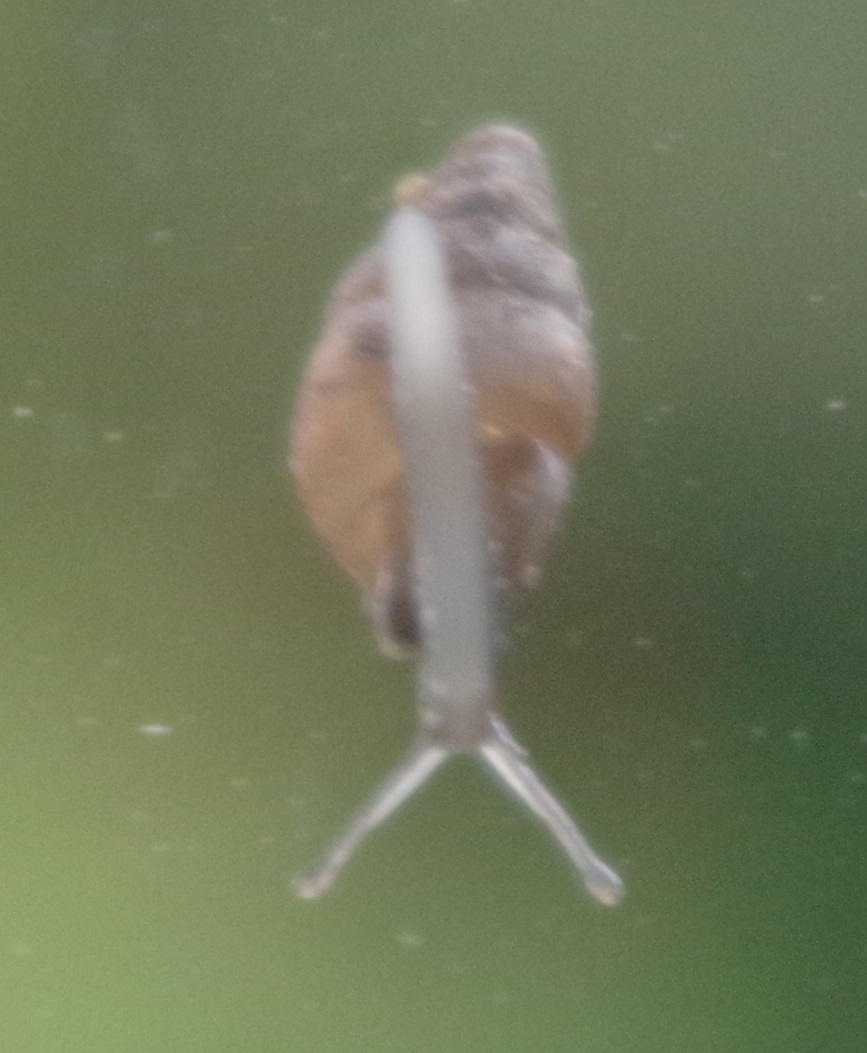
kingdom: Animalia
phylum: Mollusca
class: Gastropoda
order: Stylommatophora
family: Enidae
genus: Merdigera
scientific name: Merdigera obscura
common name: Lesser bulin
